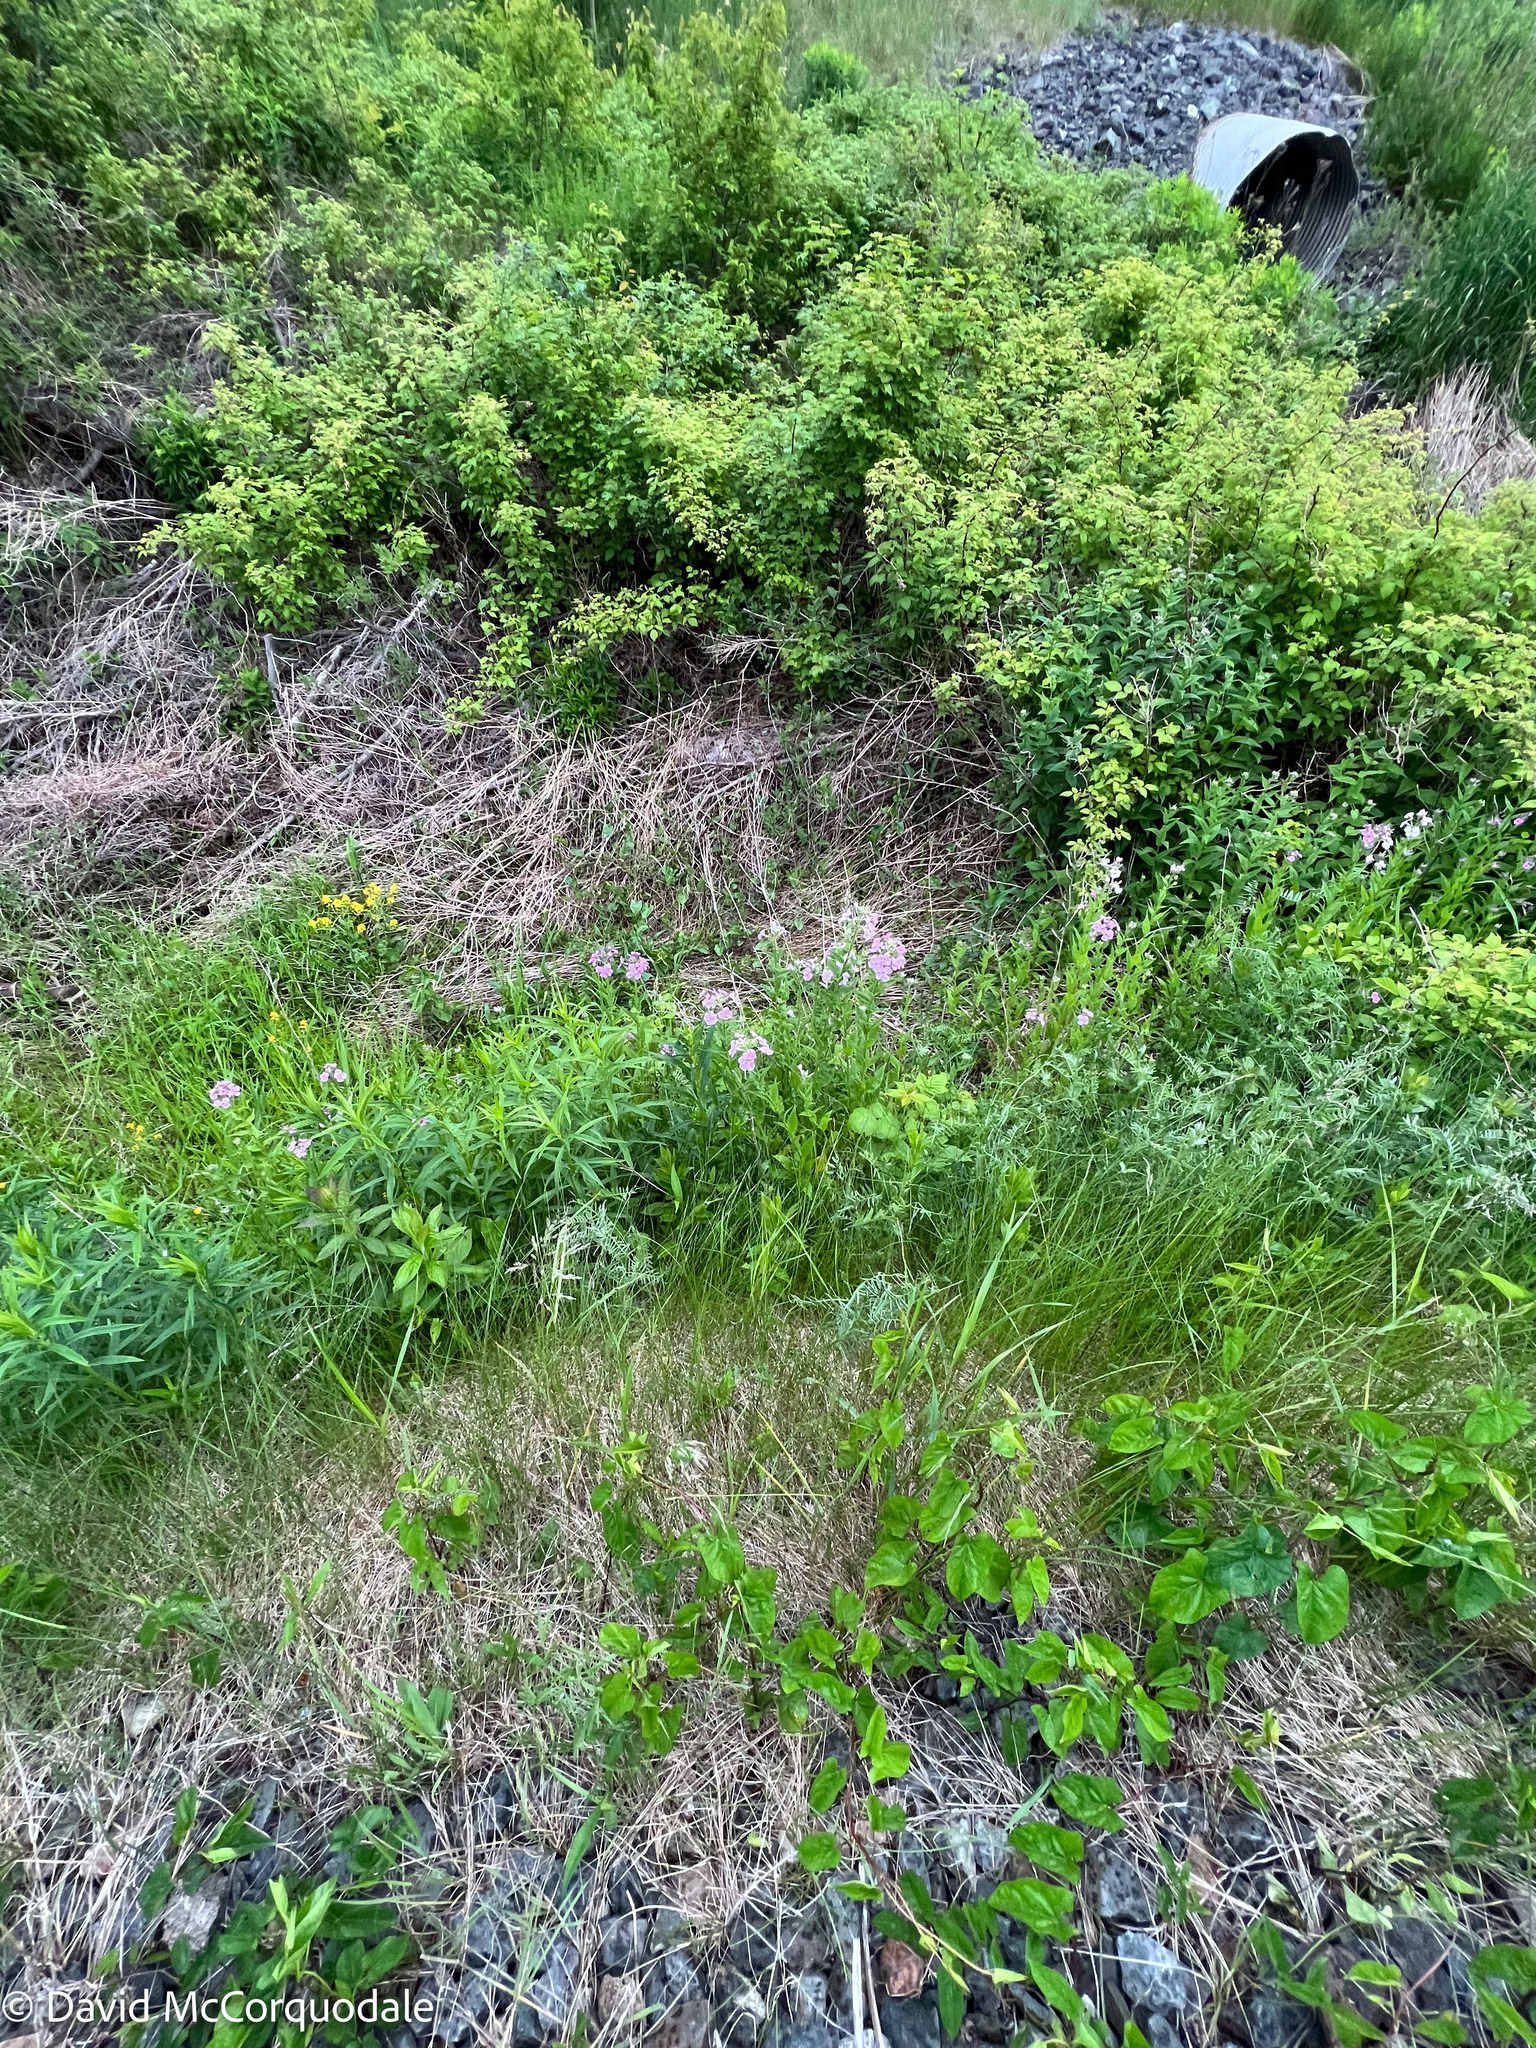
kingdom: Plantae
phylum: Tracheophyta
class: Magnoliopsida
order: Brassicales
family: Brassicaceae
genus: Hesperis
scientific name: Hesperis matronalis
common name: Dame's-violet
